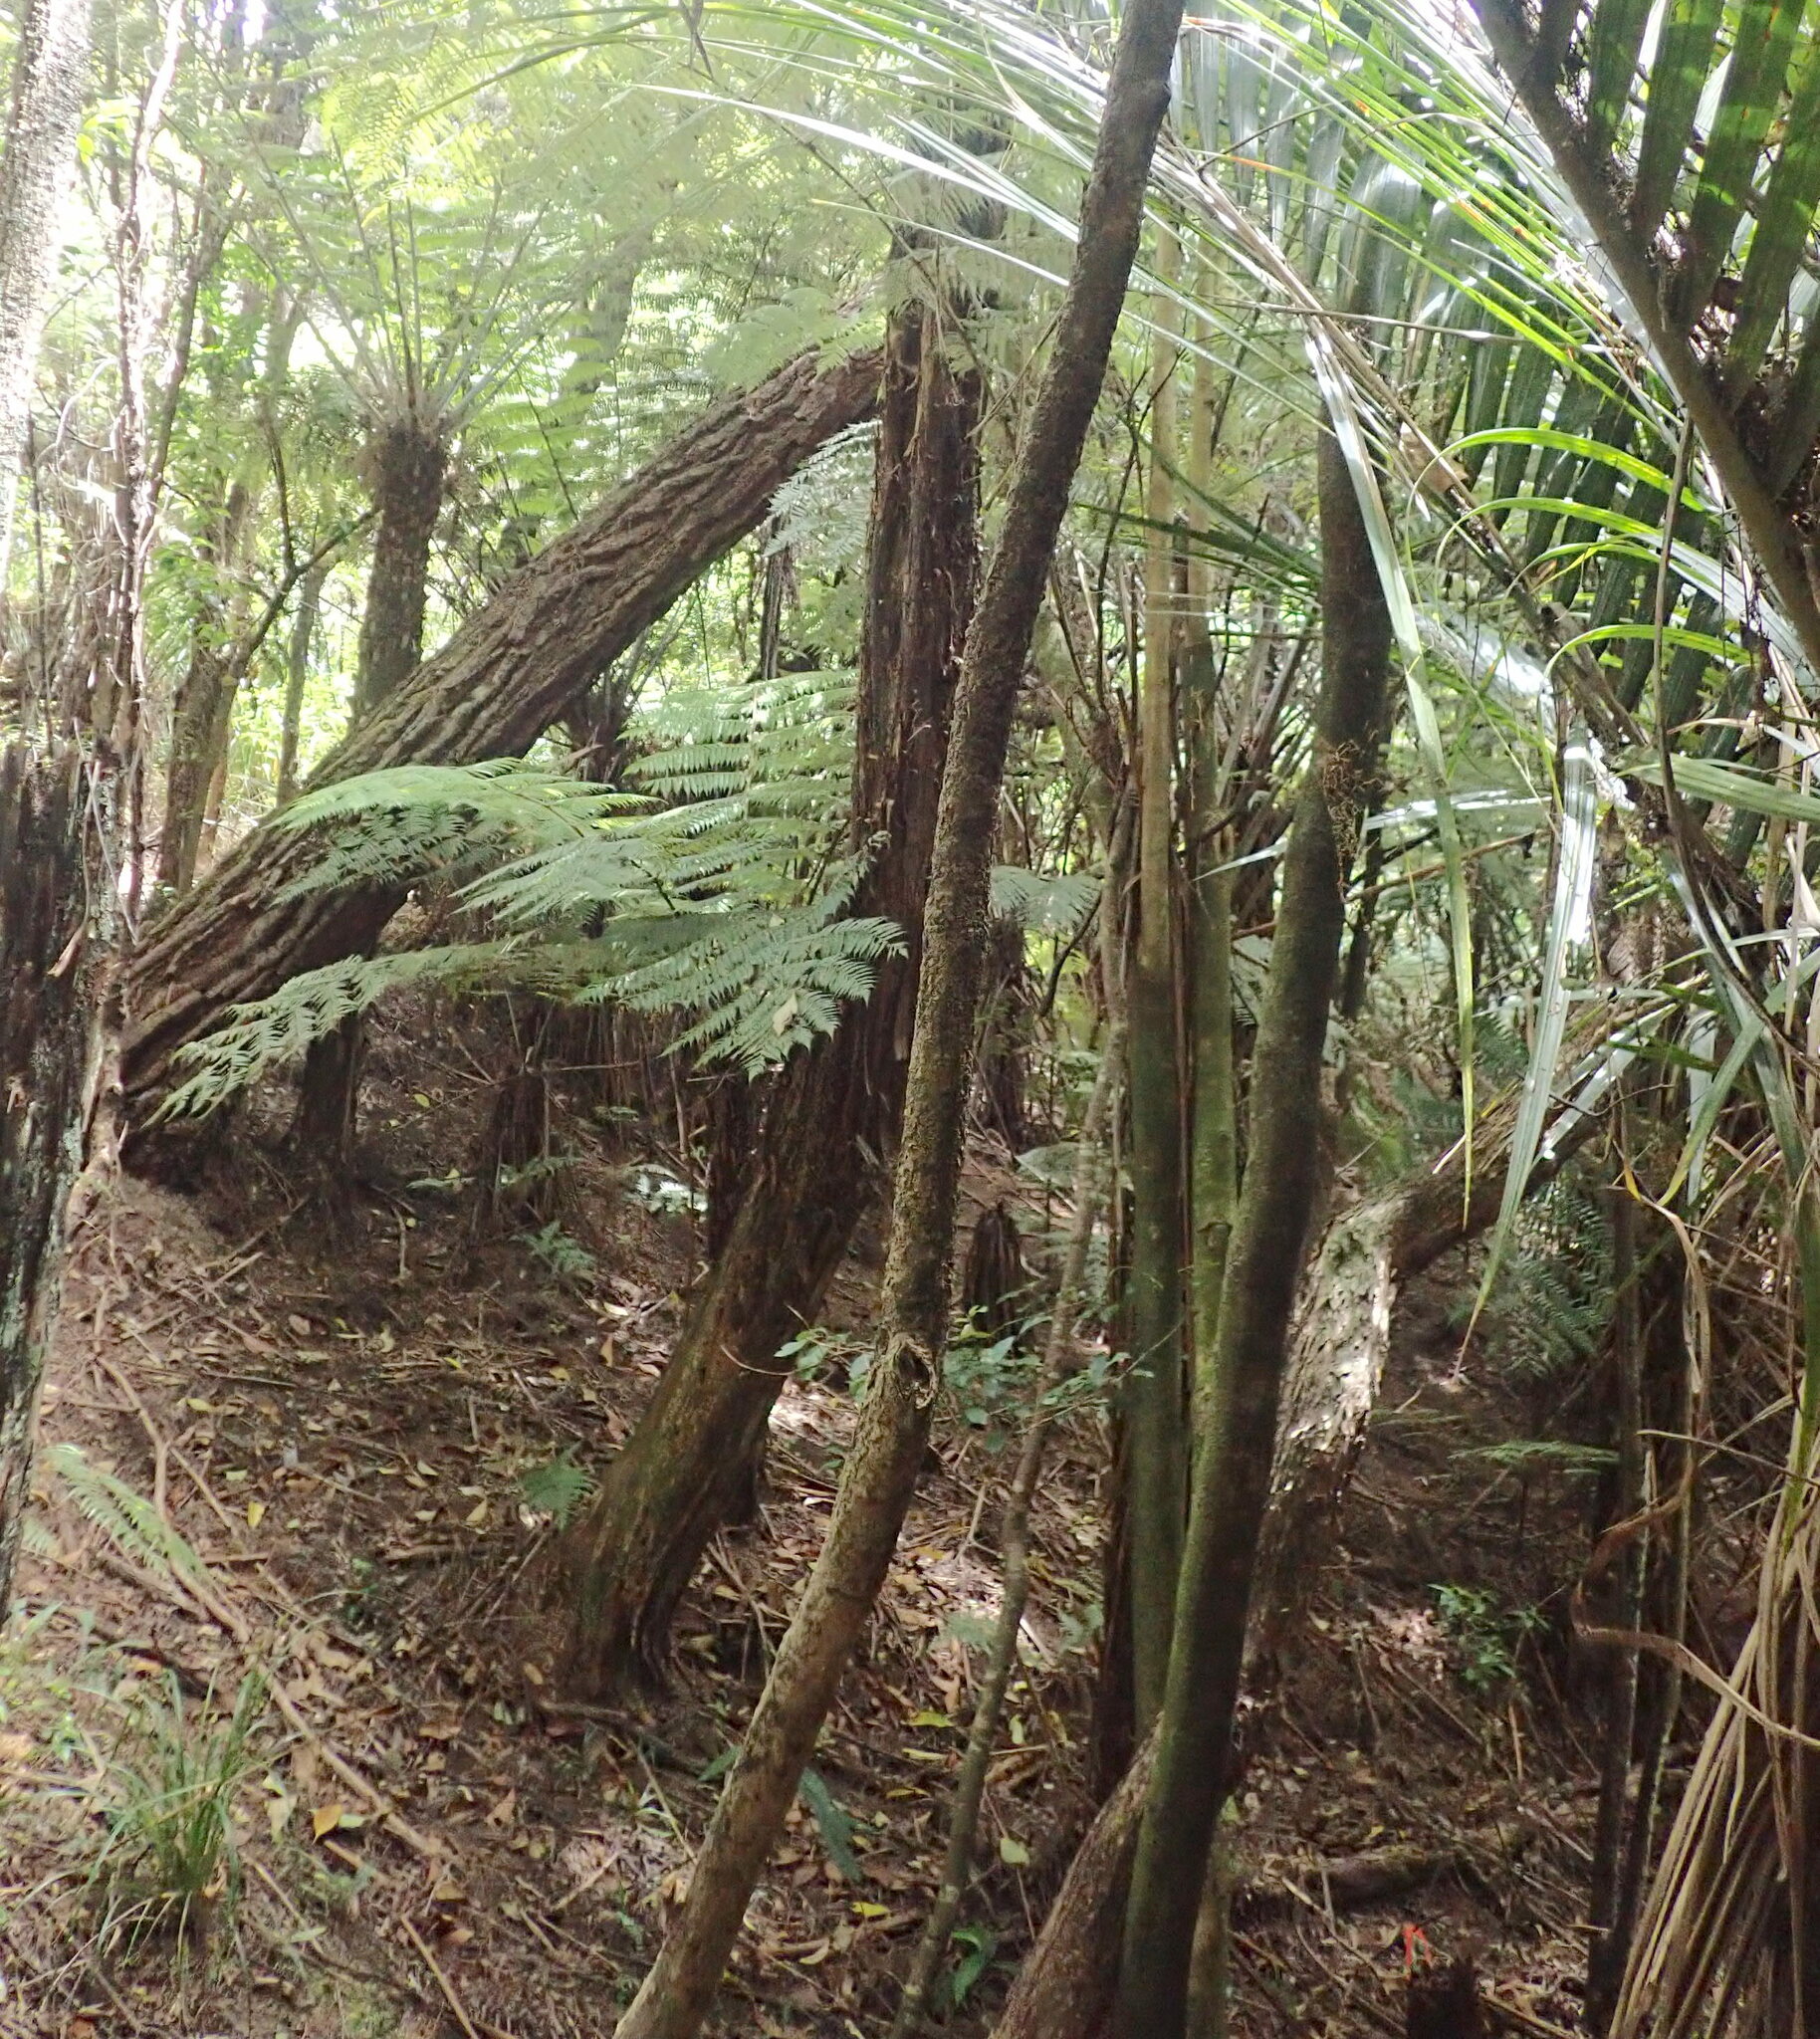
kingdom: Plantae
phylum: Tracheophyta
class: Polypodiopsida
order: Cyatheales
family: Cyatheaceae
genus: Alsophila
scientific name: Alsophila dealbata
